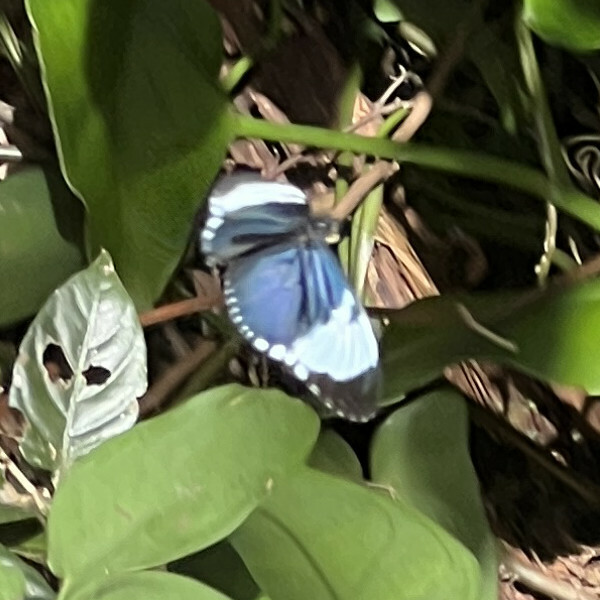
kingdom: Animalia
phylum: Arthropoda
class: Insecta
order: Lepidoptera
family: Nymphalidae
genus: Heliconius
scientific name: Heliconius cydno
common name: Cydno longwing
